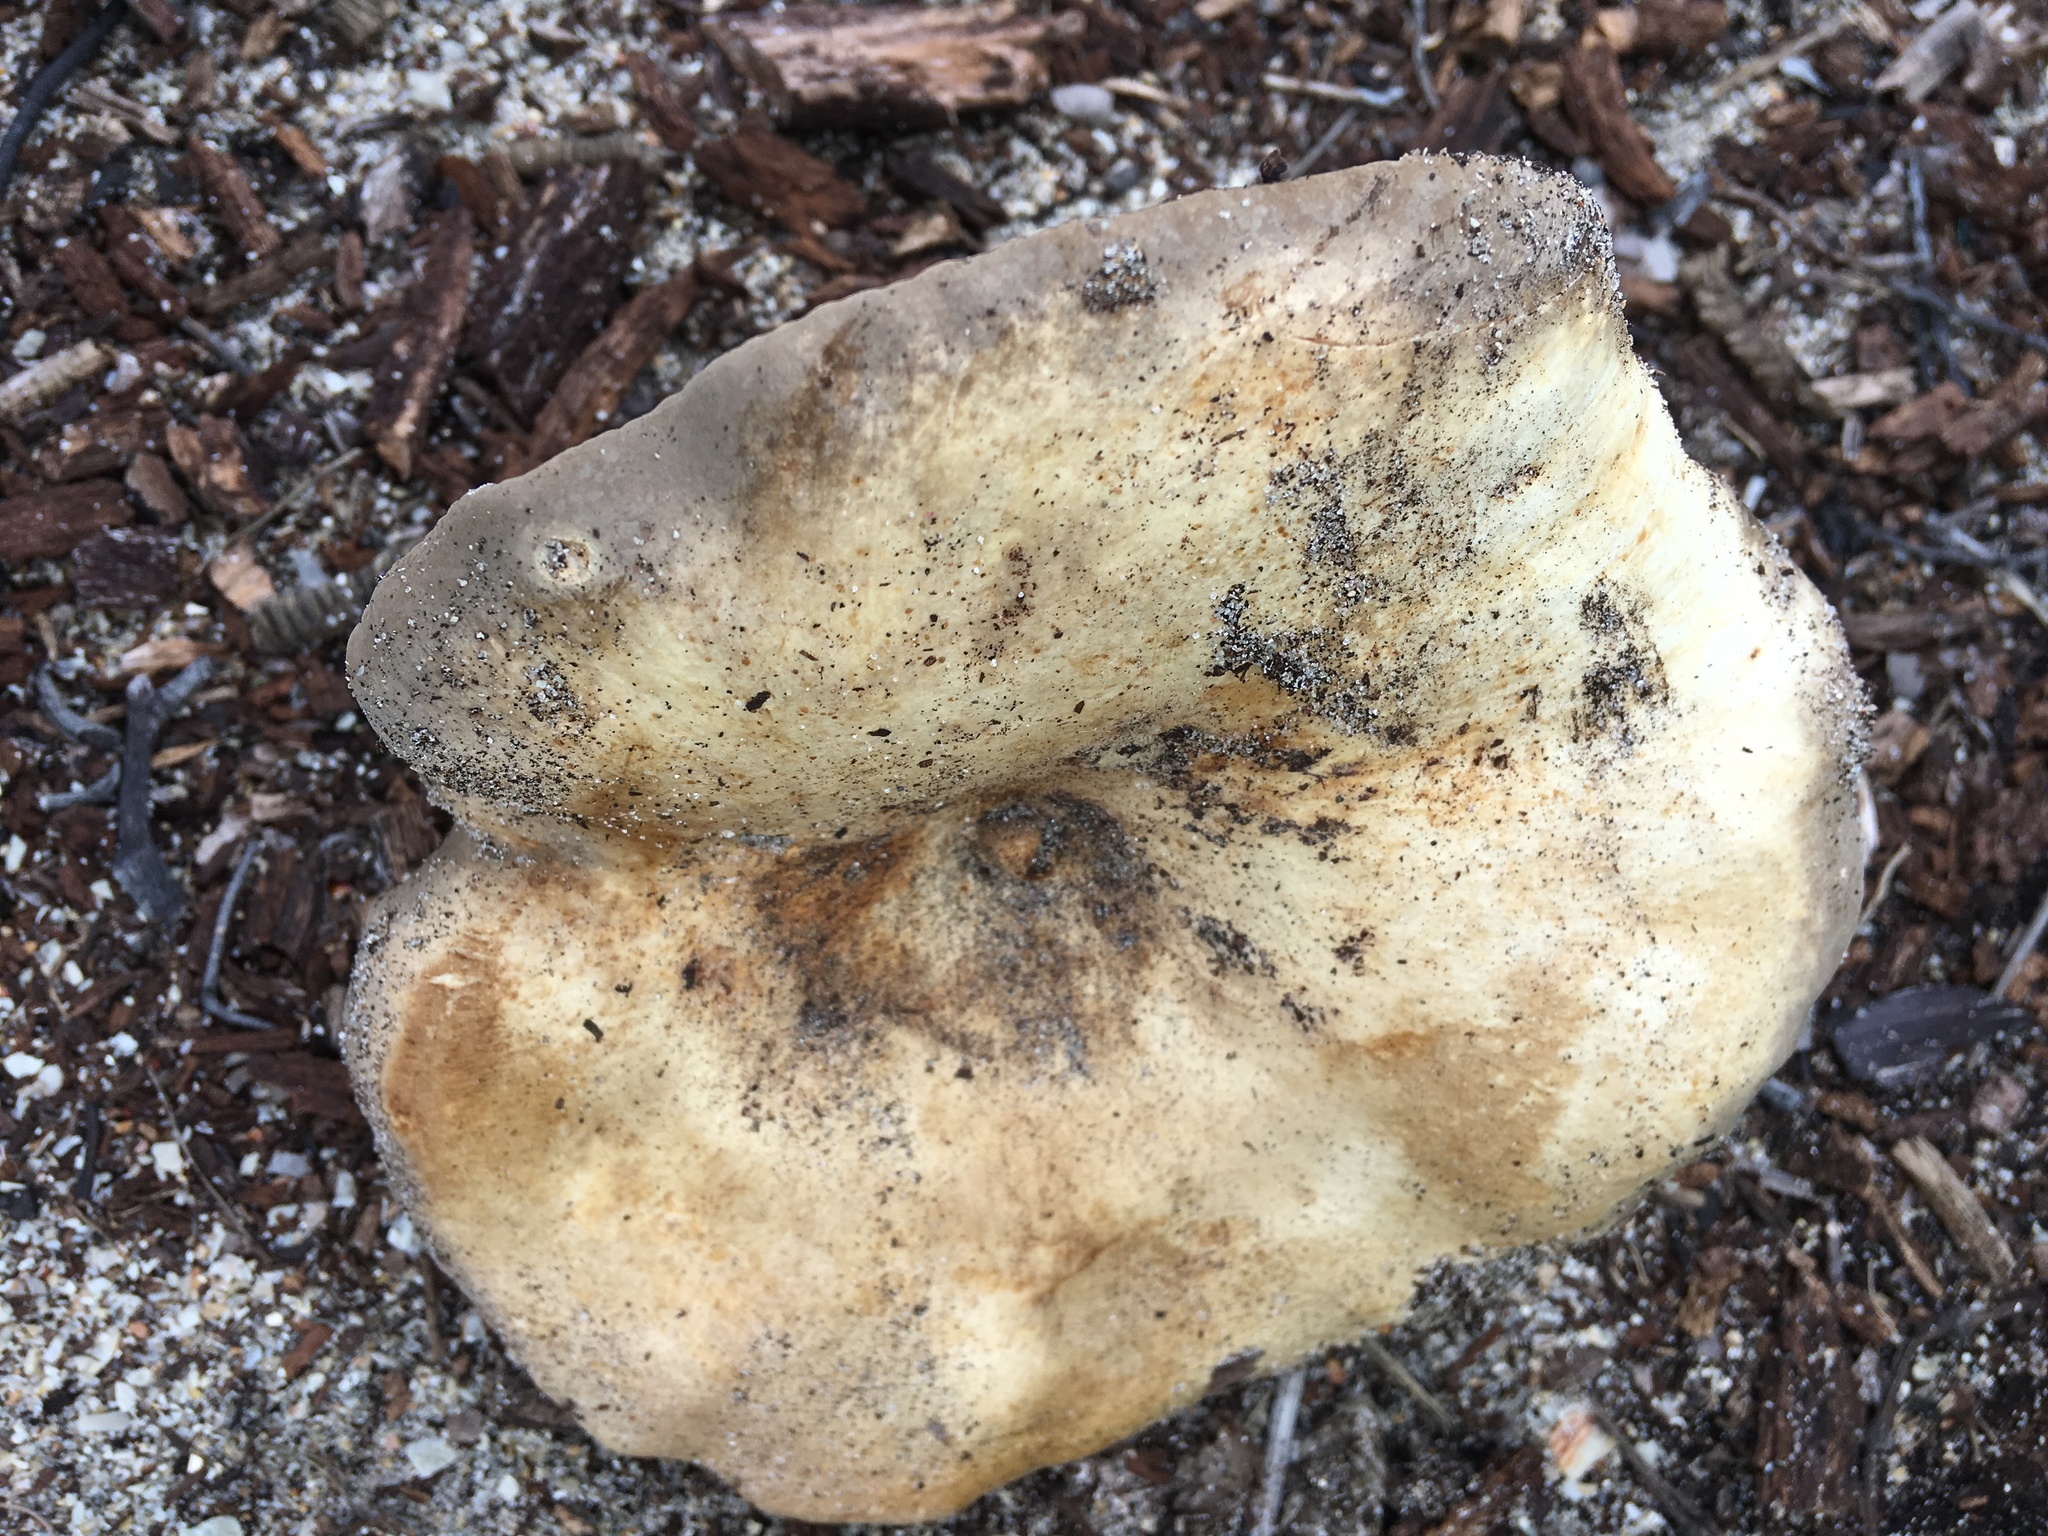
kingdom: Fungi
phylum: Basidiomycota
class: Agaricomycetes
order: Russulales
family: Russulaceae
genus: Lactifluus
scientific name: Lactifluus coccolobae
